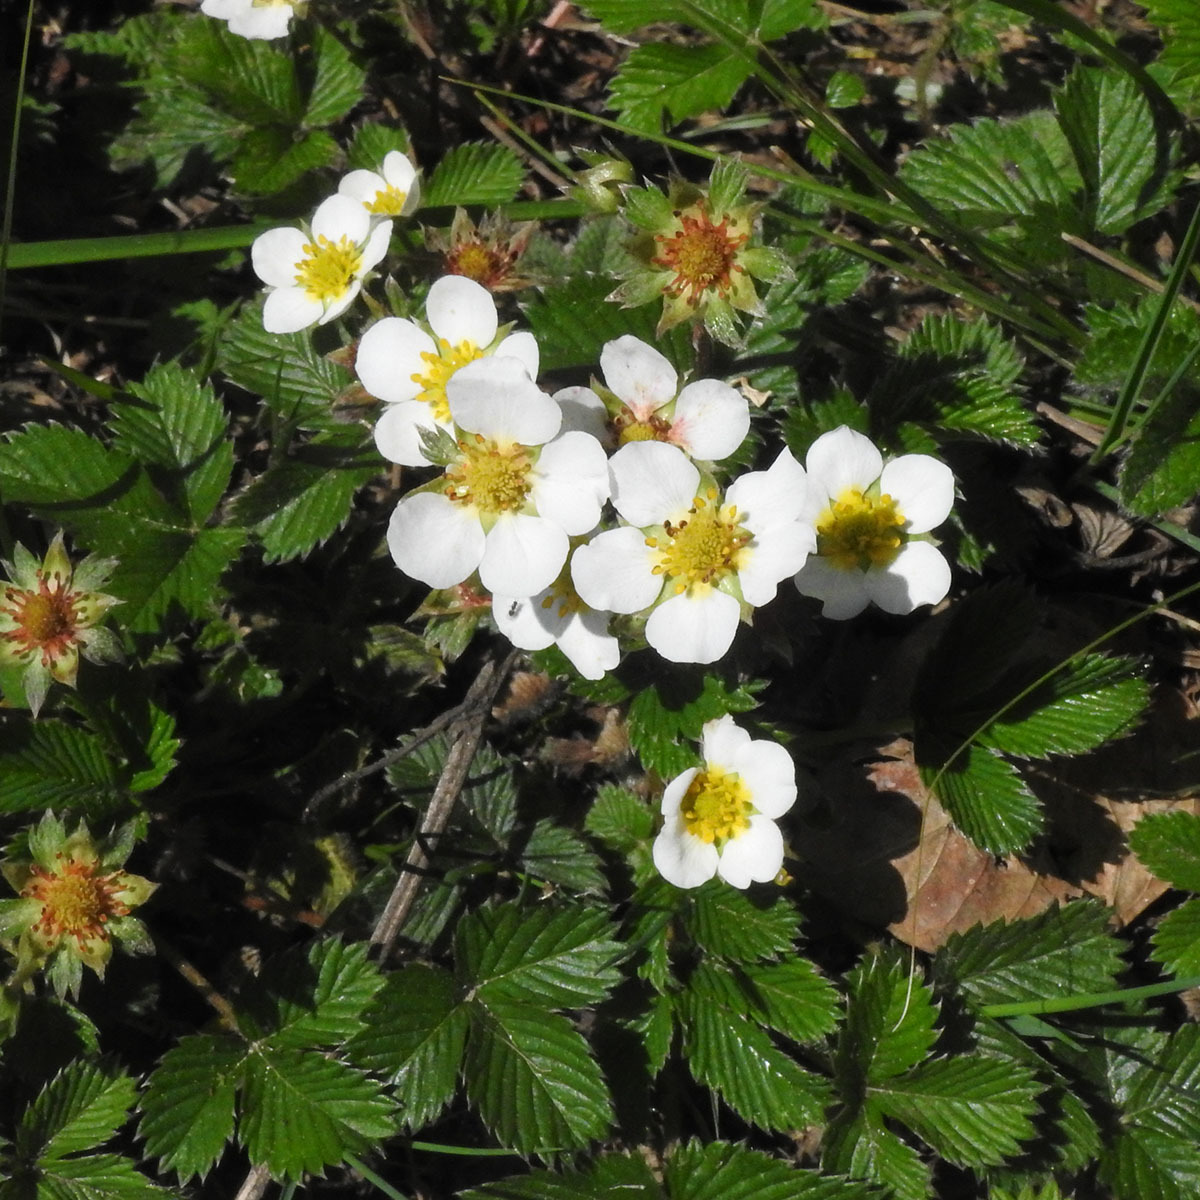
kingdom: Plantae
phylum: Tracheophyta
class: Magnoliopsida
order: Rosales
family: Rosaceae
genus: Fragaria
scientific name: Fragaria nubicola
